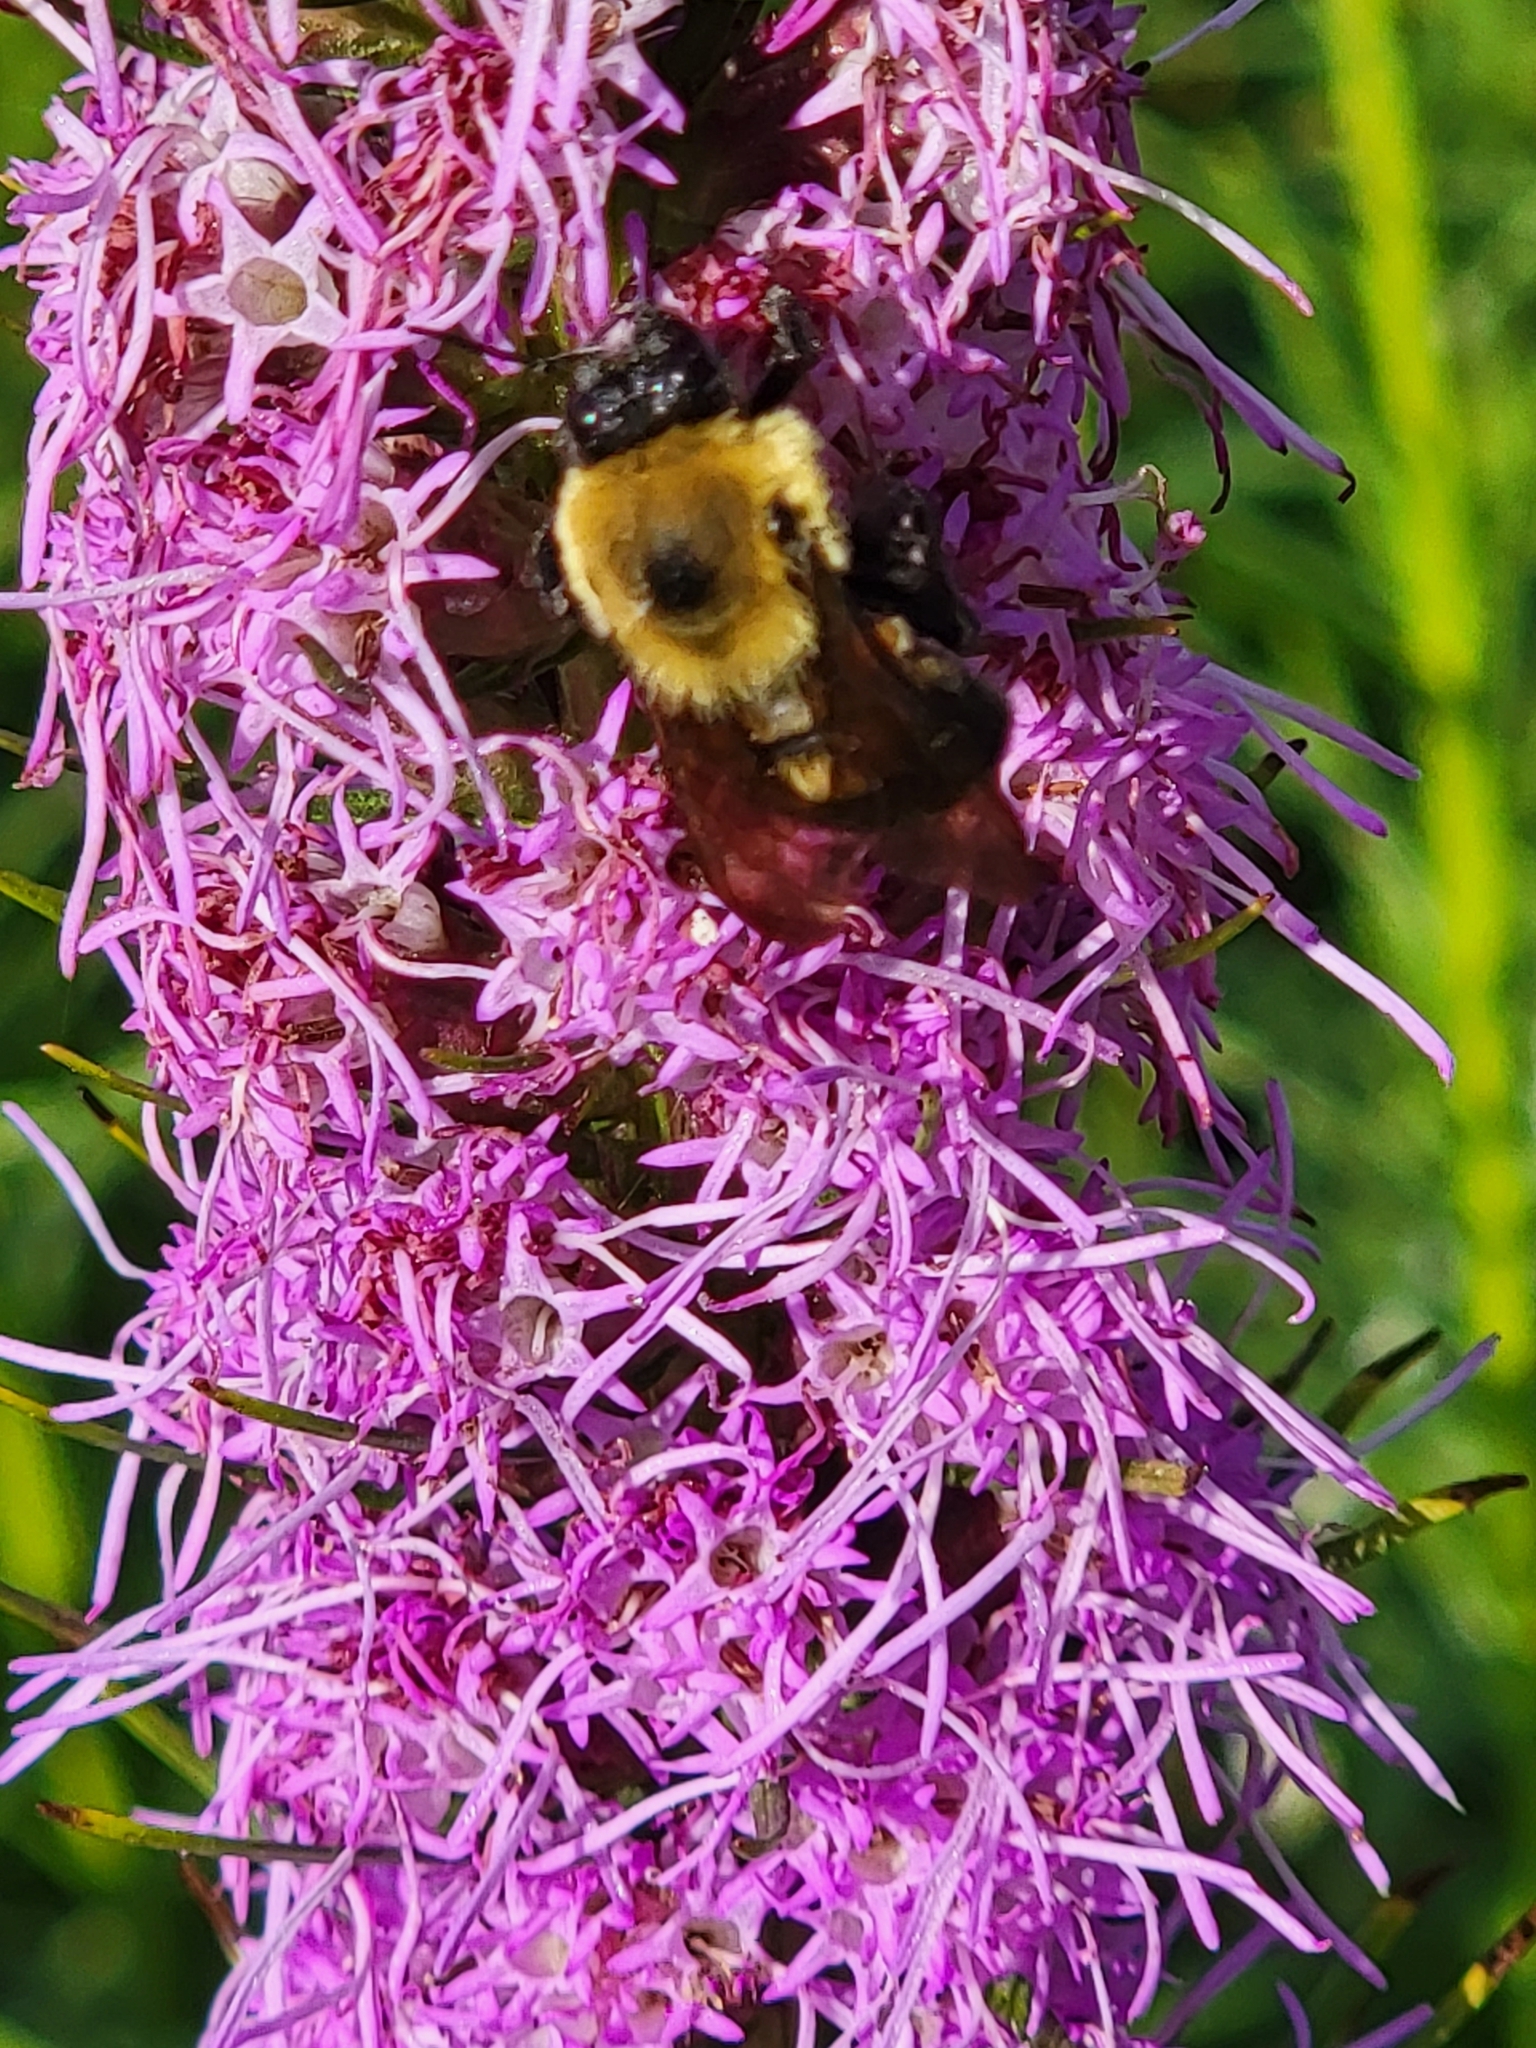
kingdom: Animalia
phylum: Arthropoda
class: Insecta
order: Hymenoptera
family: Apidae
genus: Bombus
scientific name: Bombus griseocollis
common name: Brown-belted bumble bee
